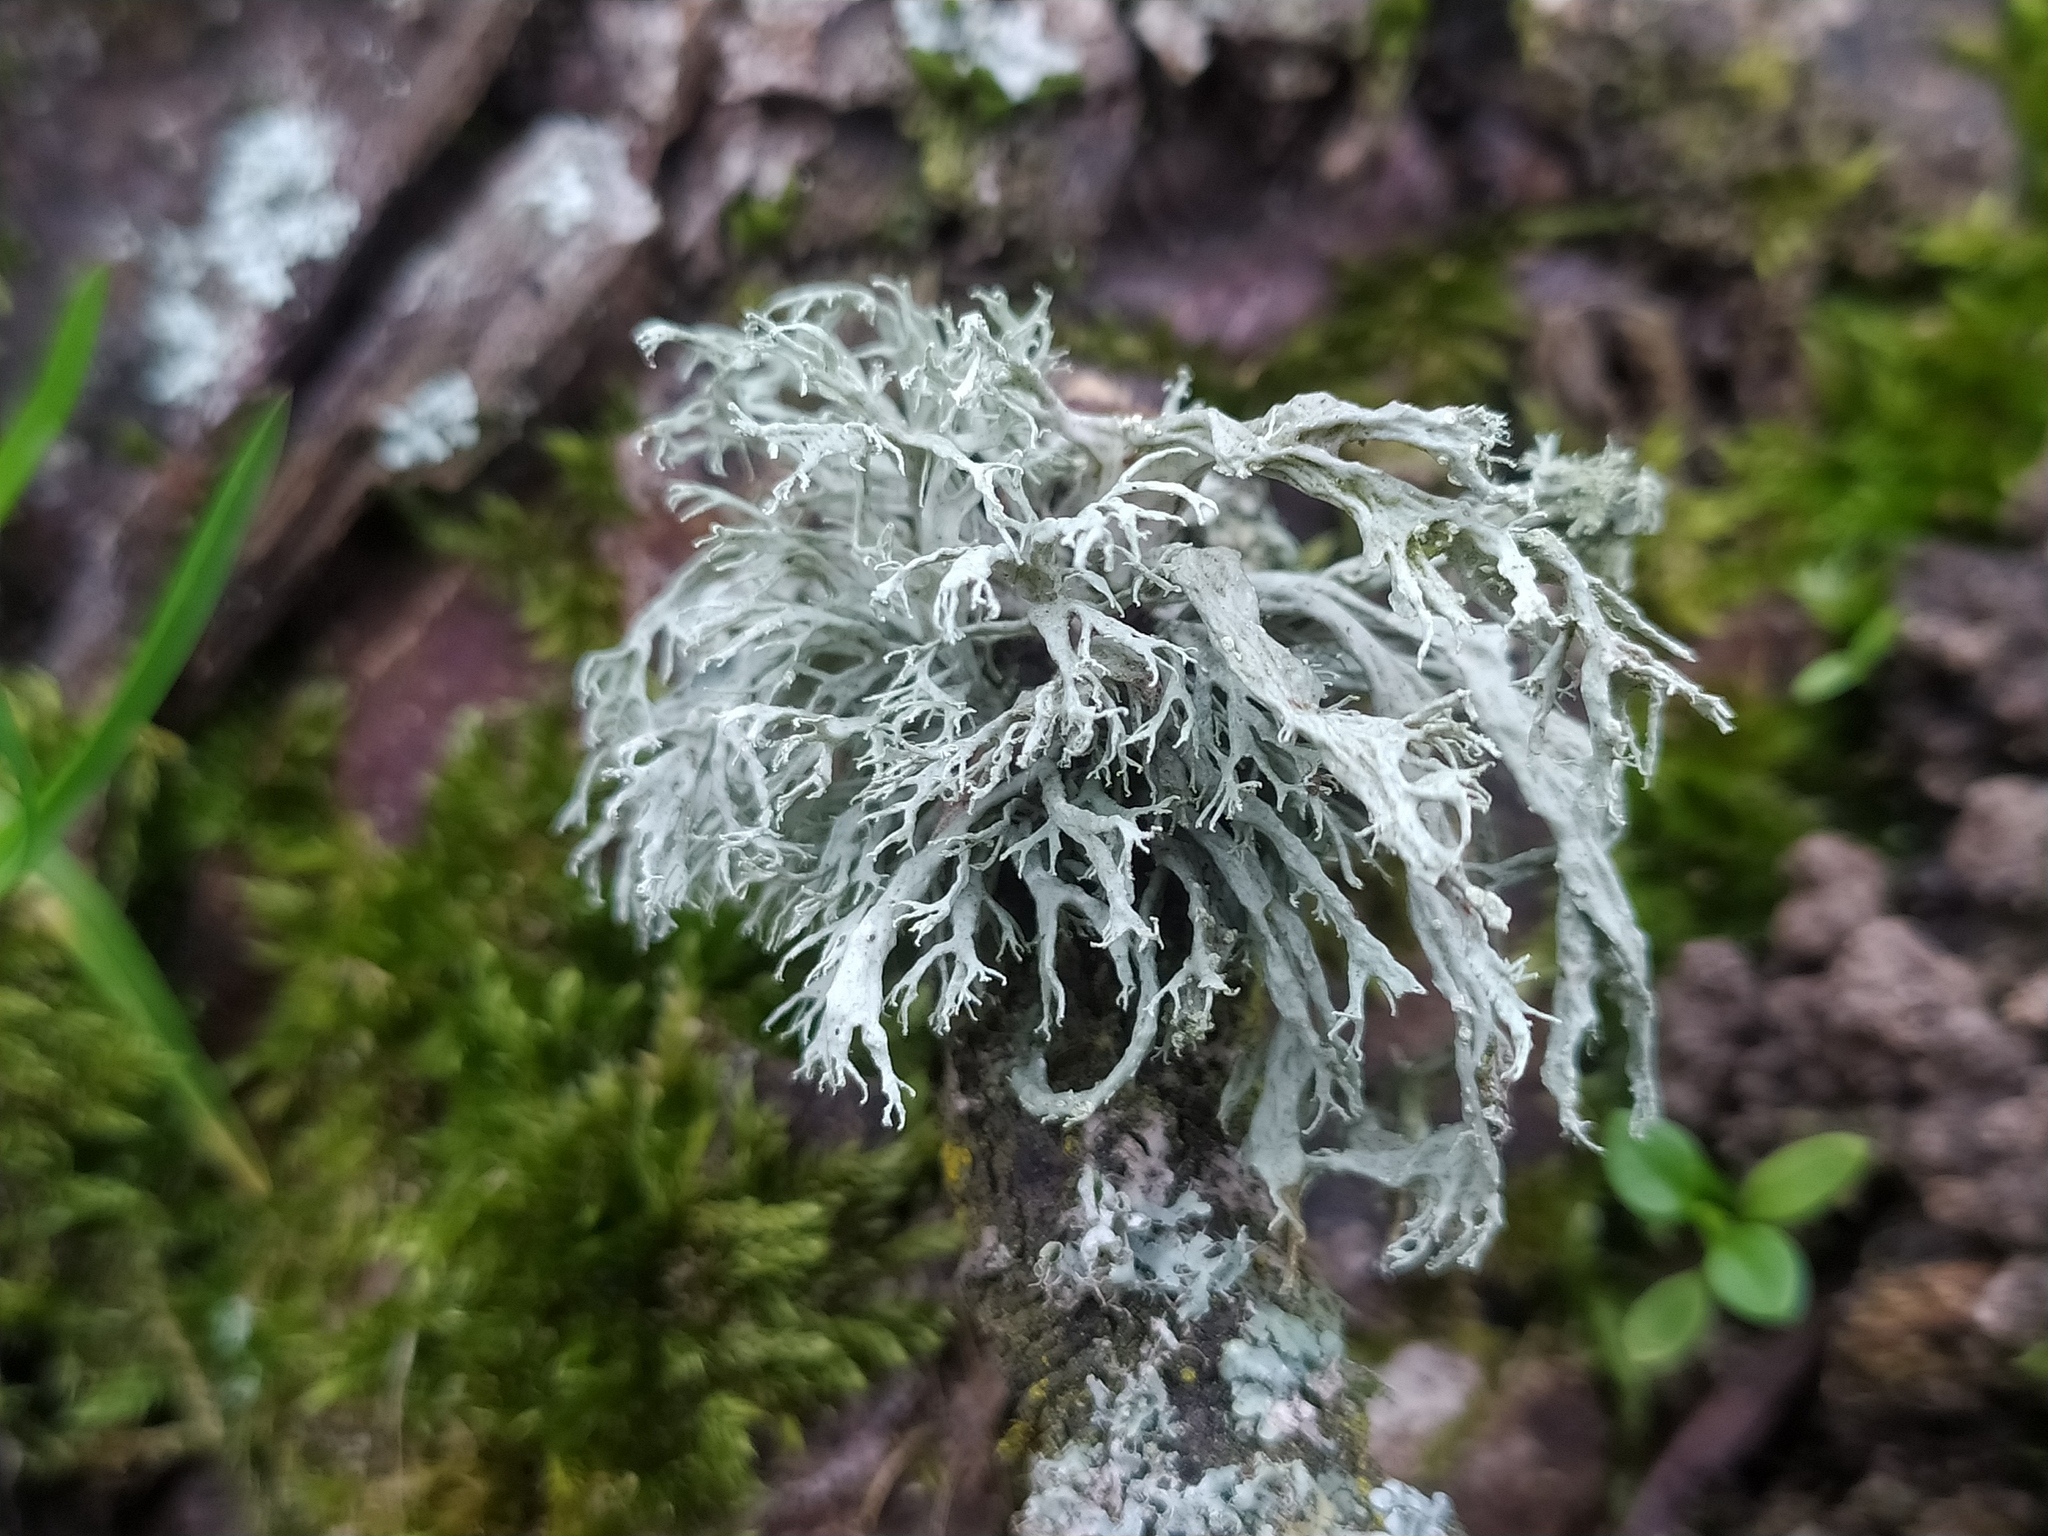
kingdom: Fungi
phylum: Ascomycota
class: Lecanoromycetes
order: Lecanorales
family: Ramalinaceae
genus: Ramalina
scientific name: Ramalina farinacea
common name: Farinose cartilage lichen
